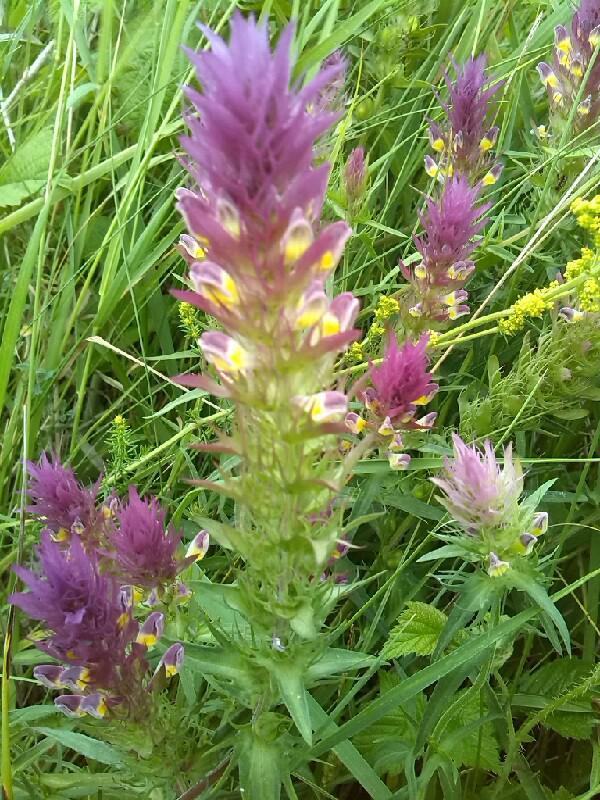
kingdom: Plantae
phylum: Tracheophyta
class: Magnoliopsida
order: Lamiales
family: Orobanchaceae
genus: Melampyrum
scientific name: Melampyrum arvense
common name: Field cow-wheat
